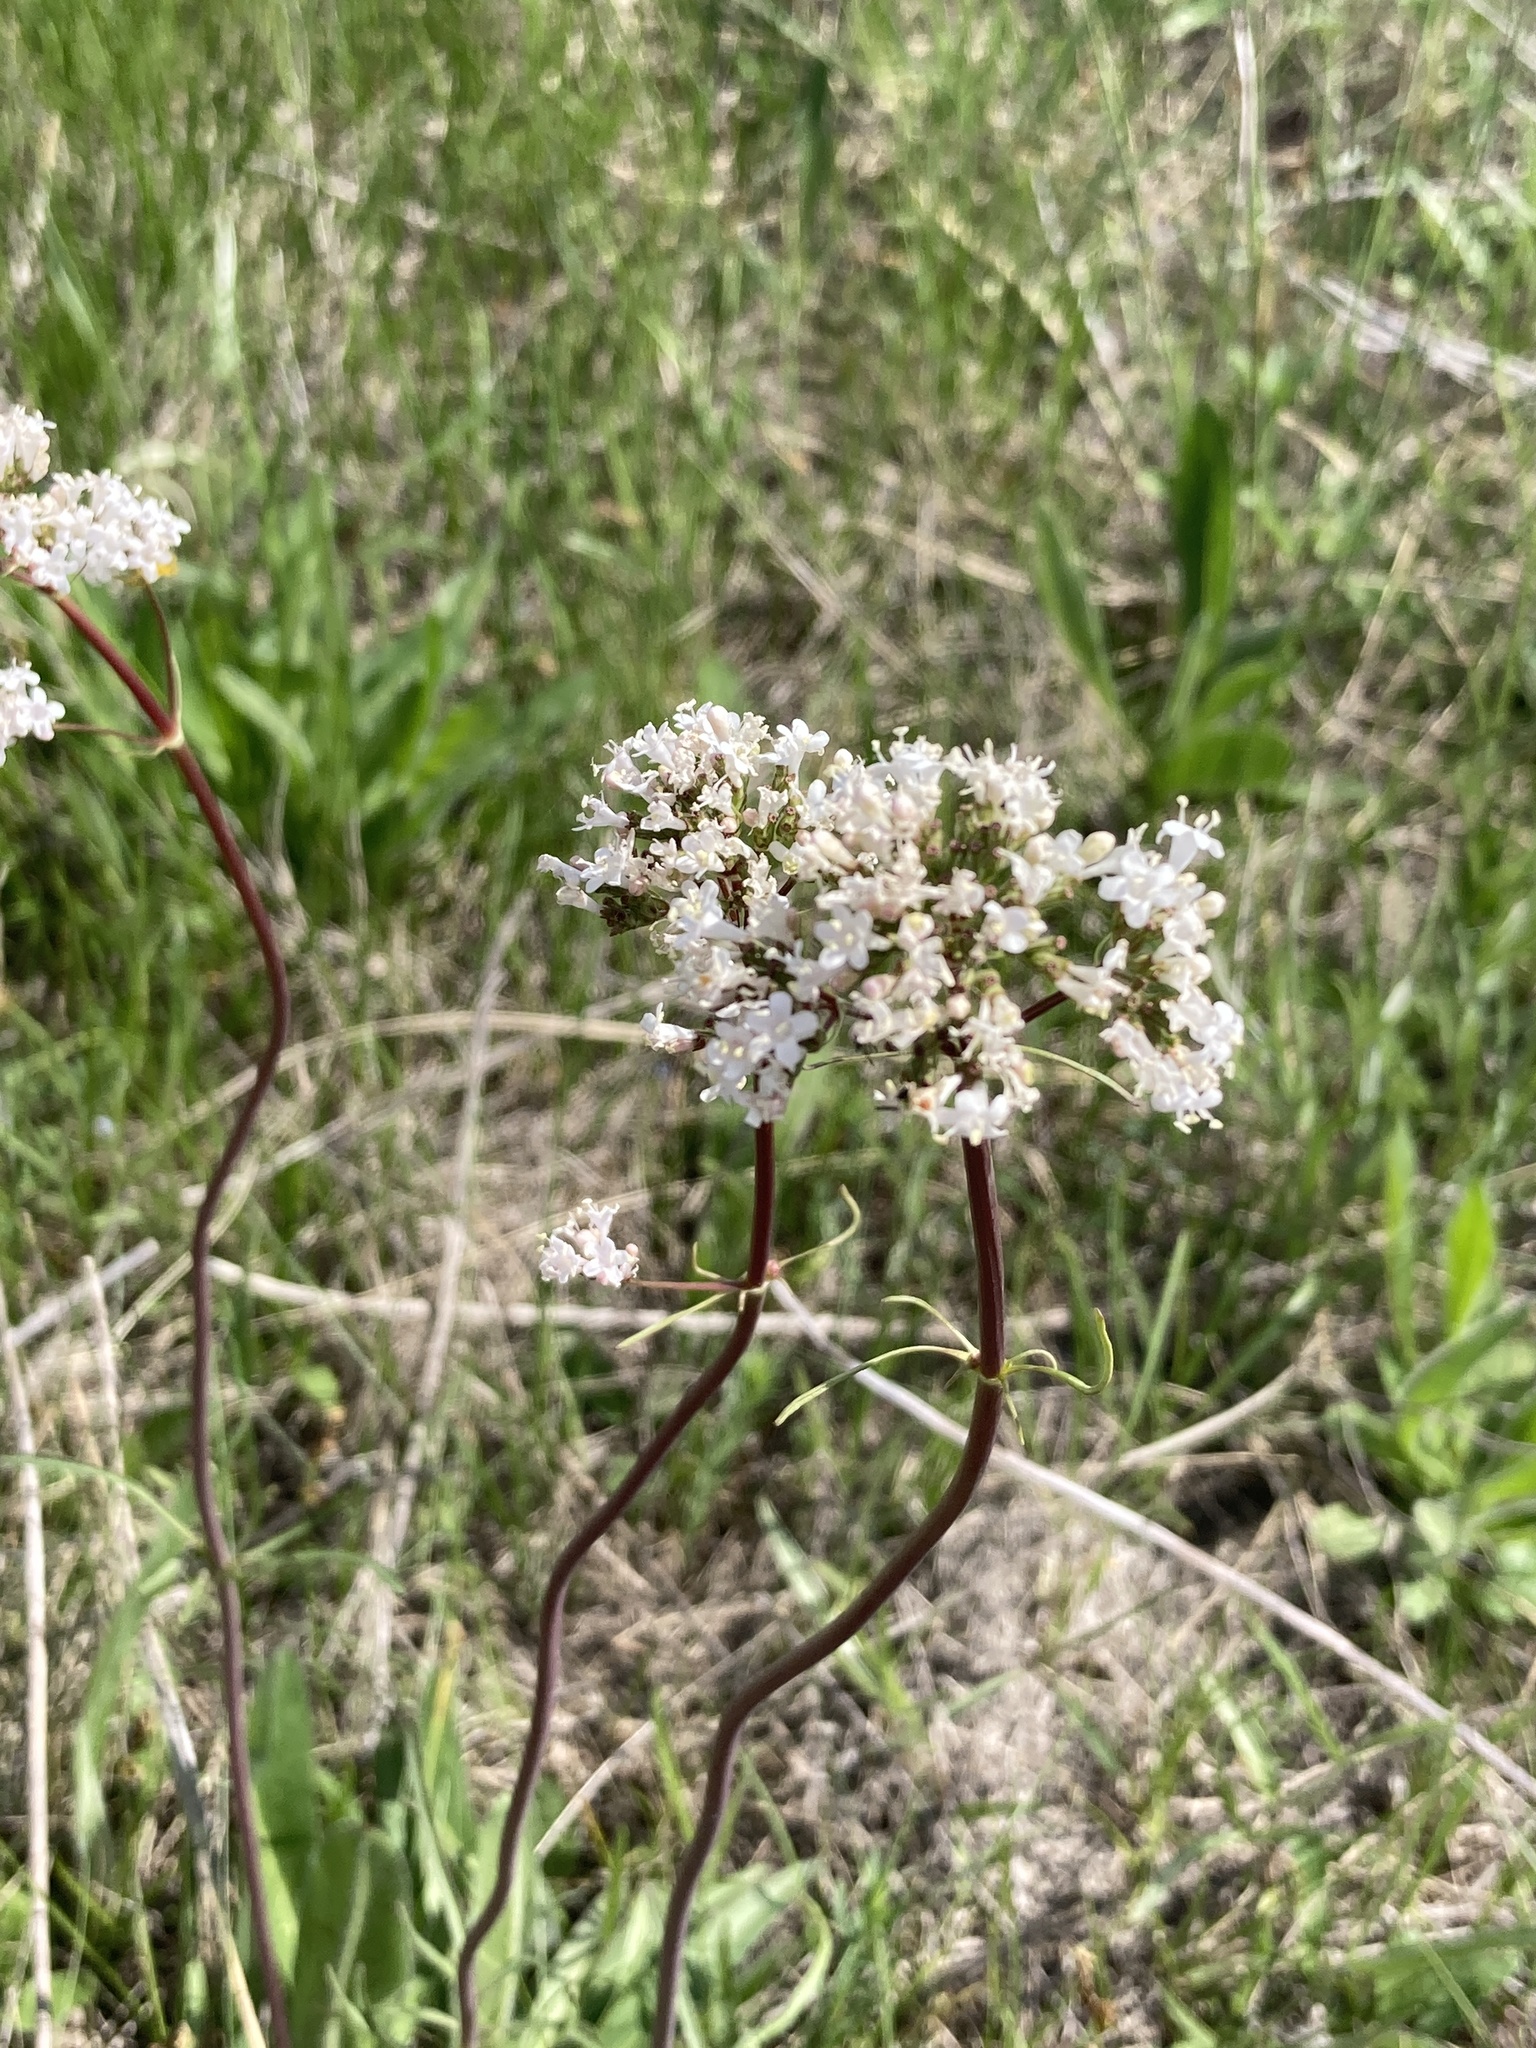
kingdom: Plantae
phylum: Tracheophyta
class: Magnoliopsida
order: Dipsacales
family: Caprifoliaceae
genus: Valeriana
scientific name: Valeriana tuberosa
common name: Tuberous valerian
